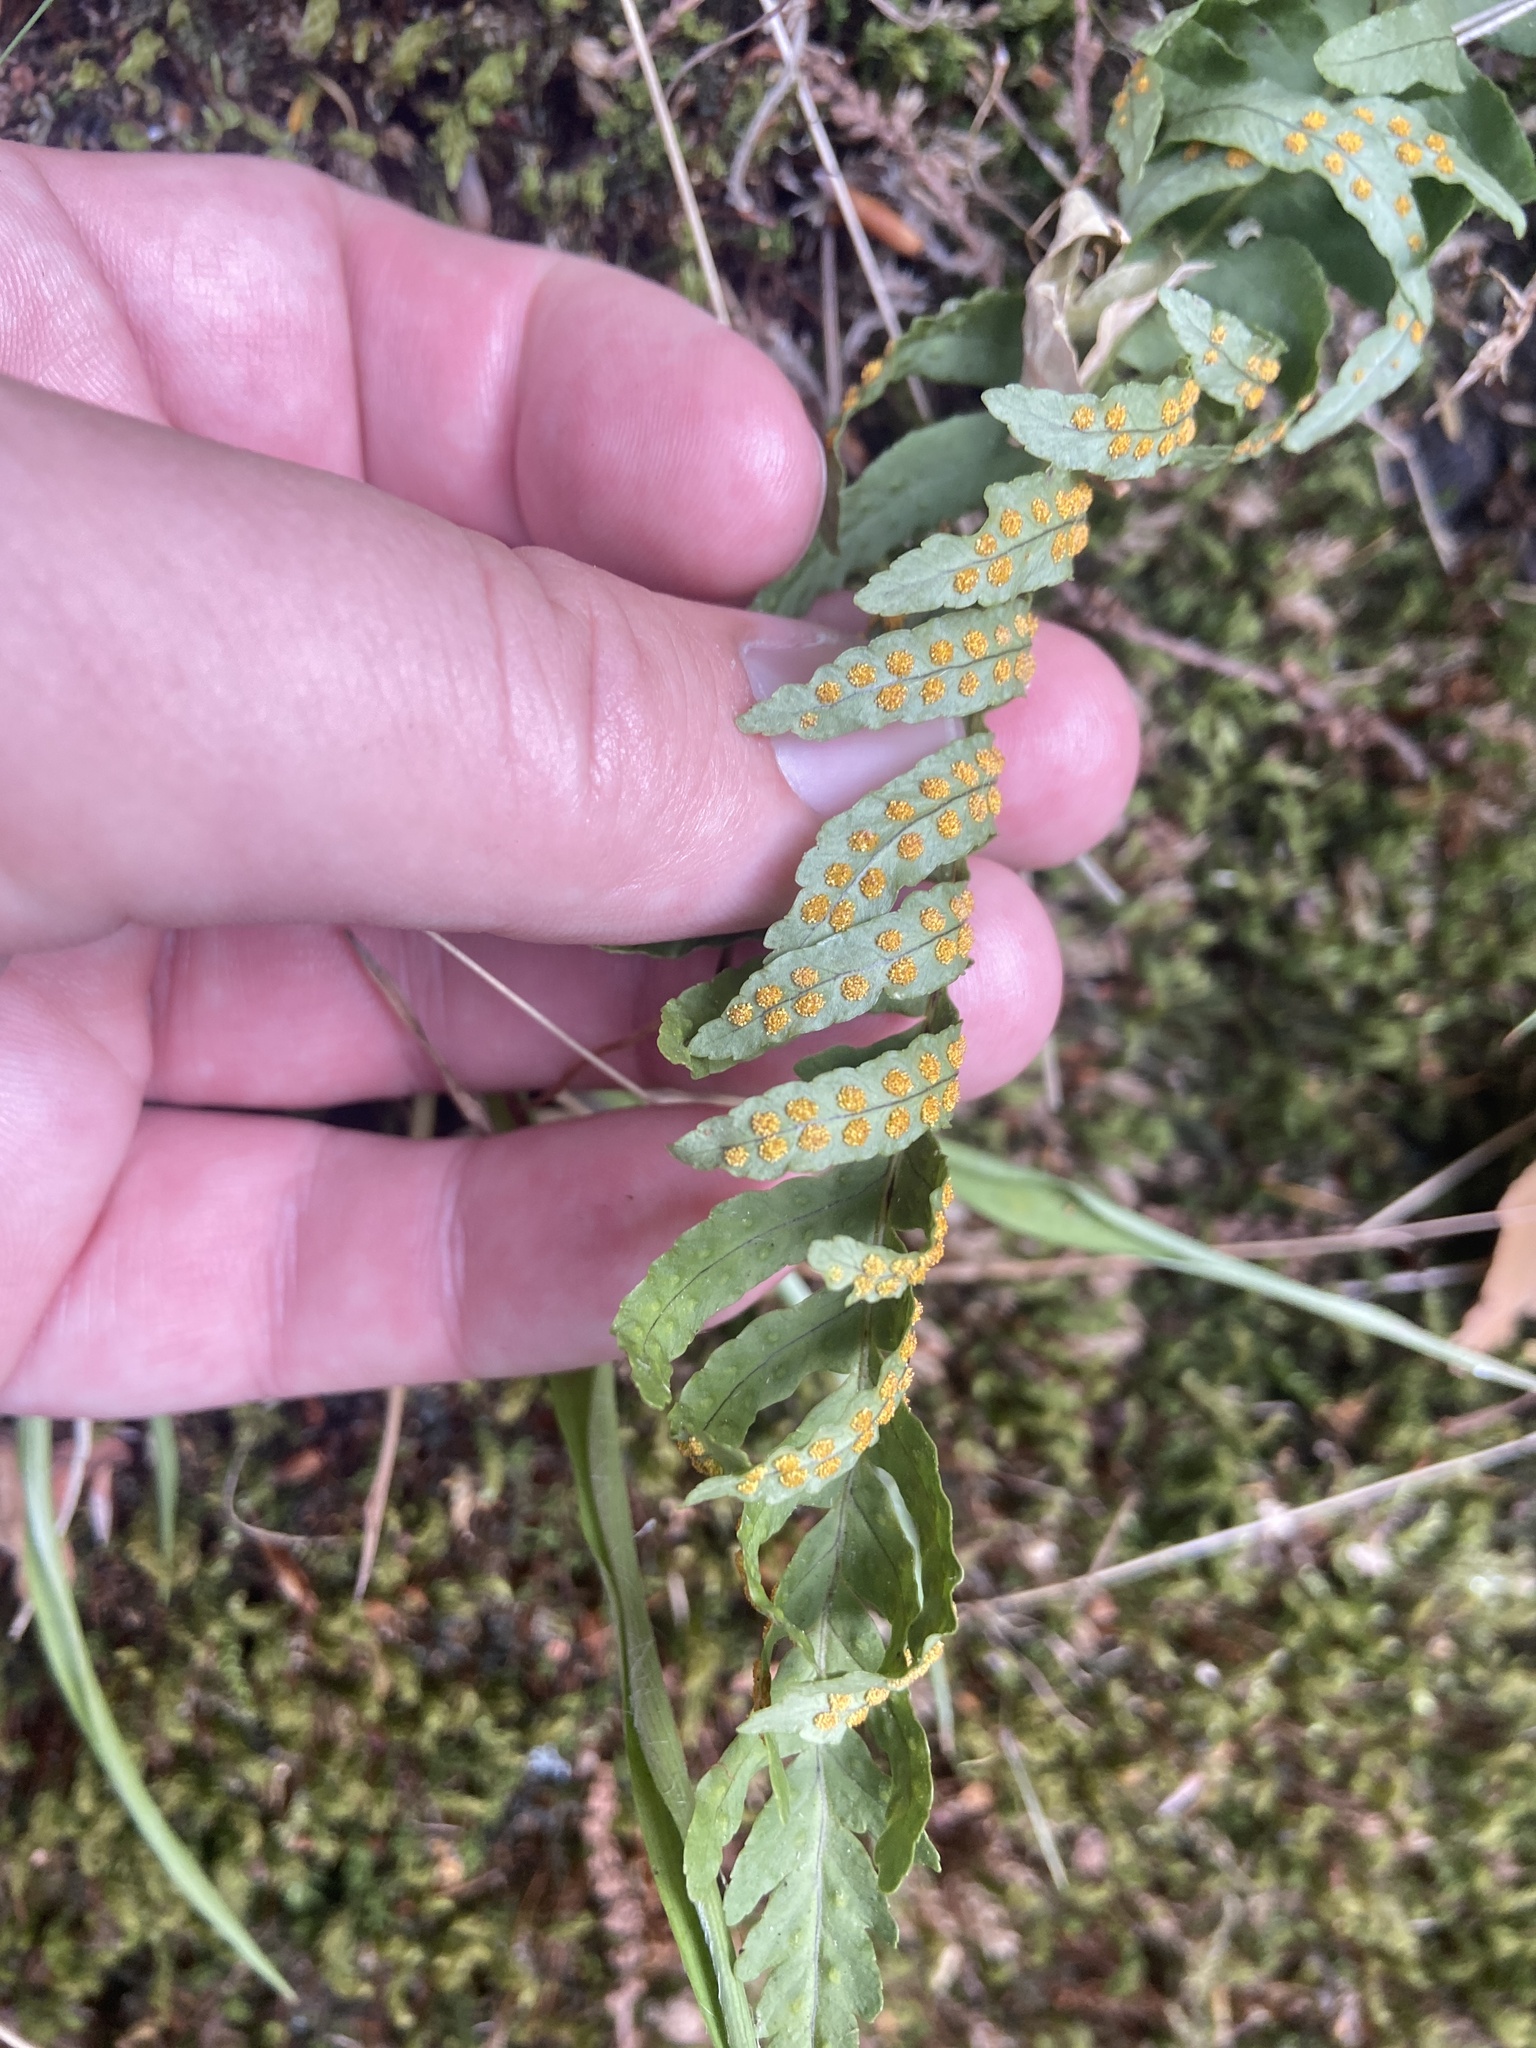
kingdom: Plantae
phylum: Tracheophyta
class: Polypodiopsida
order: Polypodiales
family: Polypodiaceae
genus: Polypodium
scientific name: Polypodium vulgare
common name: Common polypody
